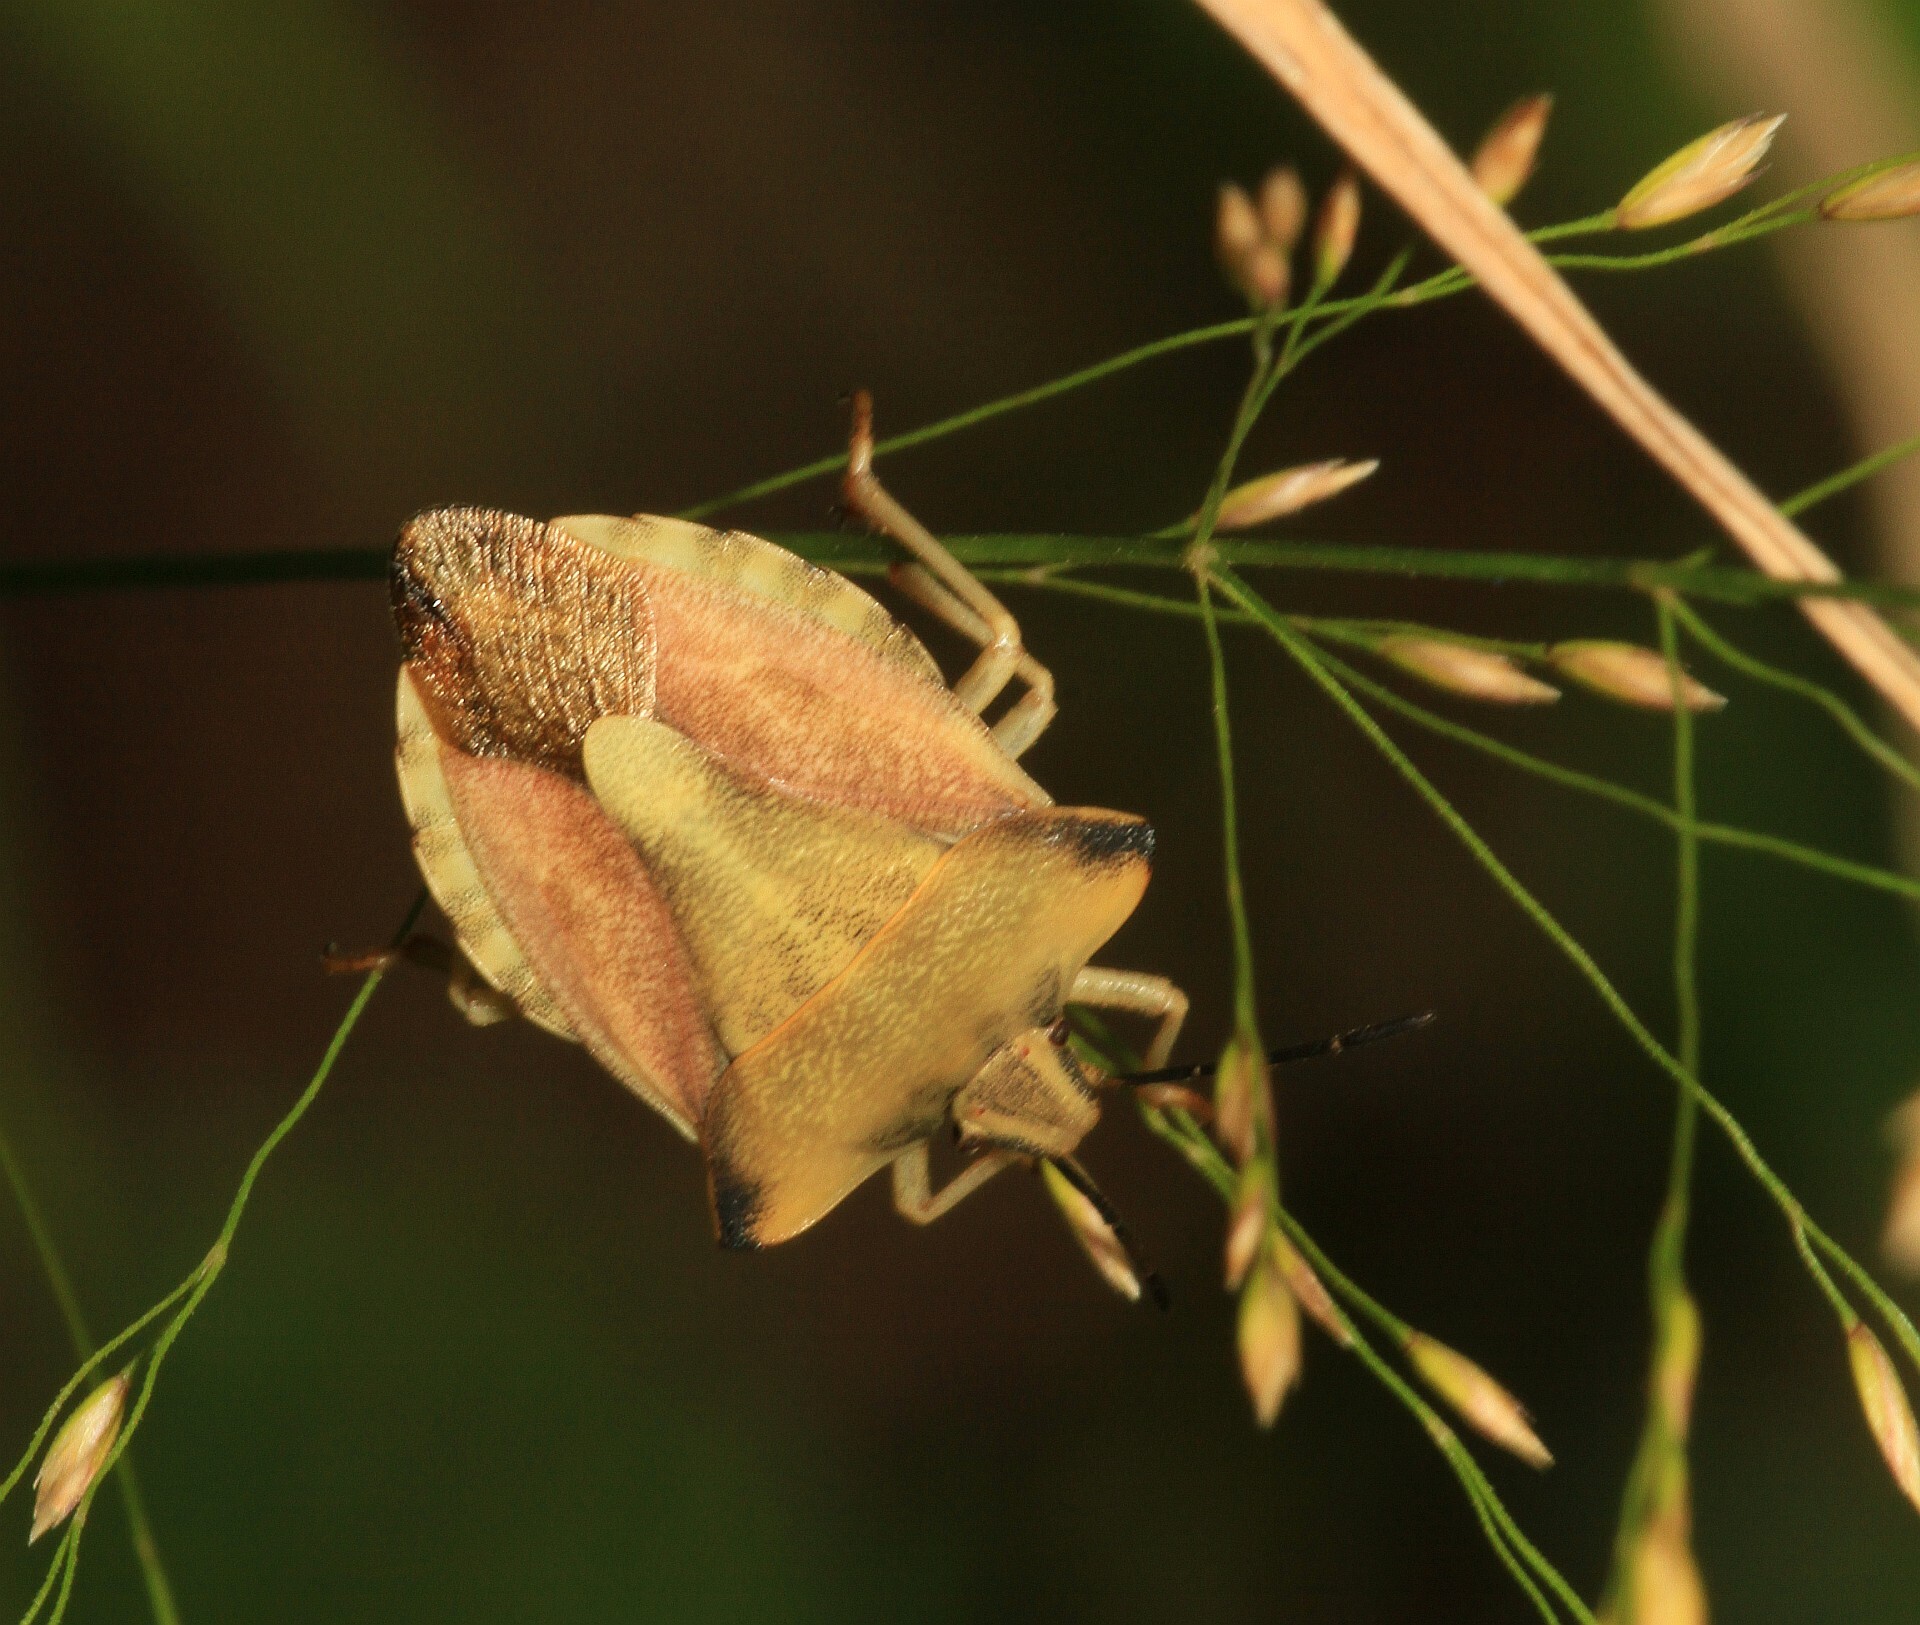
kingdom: Animalia
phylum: Arthropoda
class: Insecta
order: Hemiptera
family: Pentatomidae
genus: Carpocoris
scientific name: Carpocoris fuscispinus
